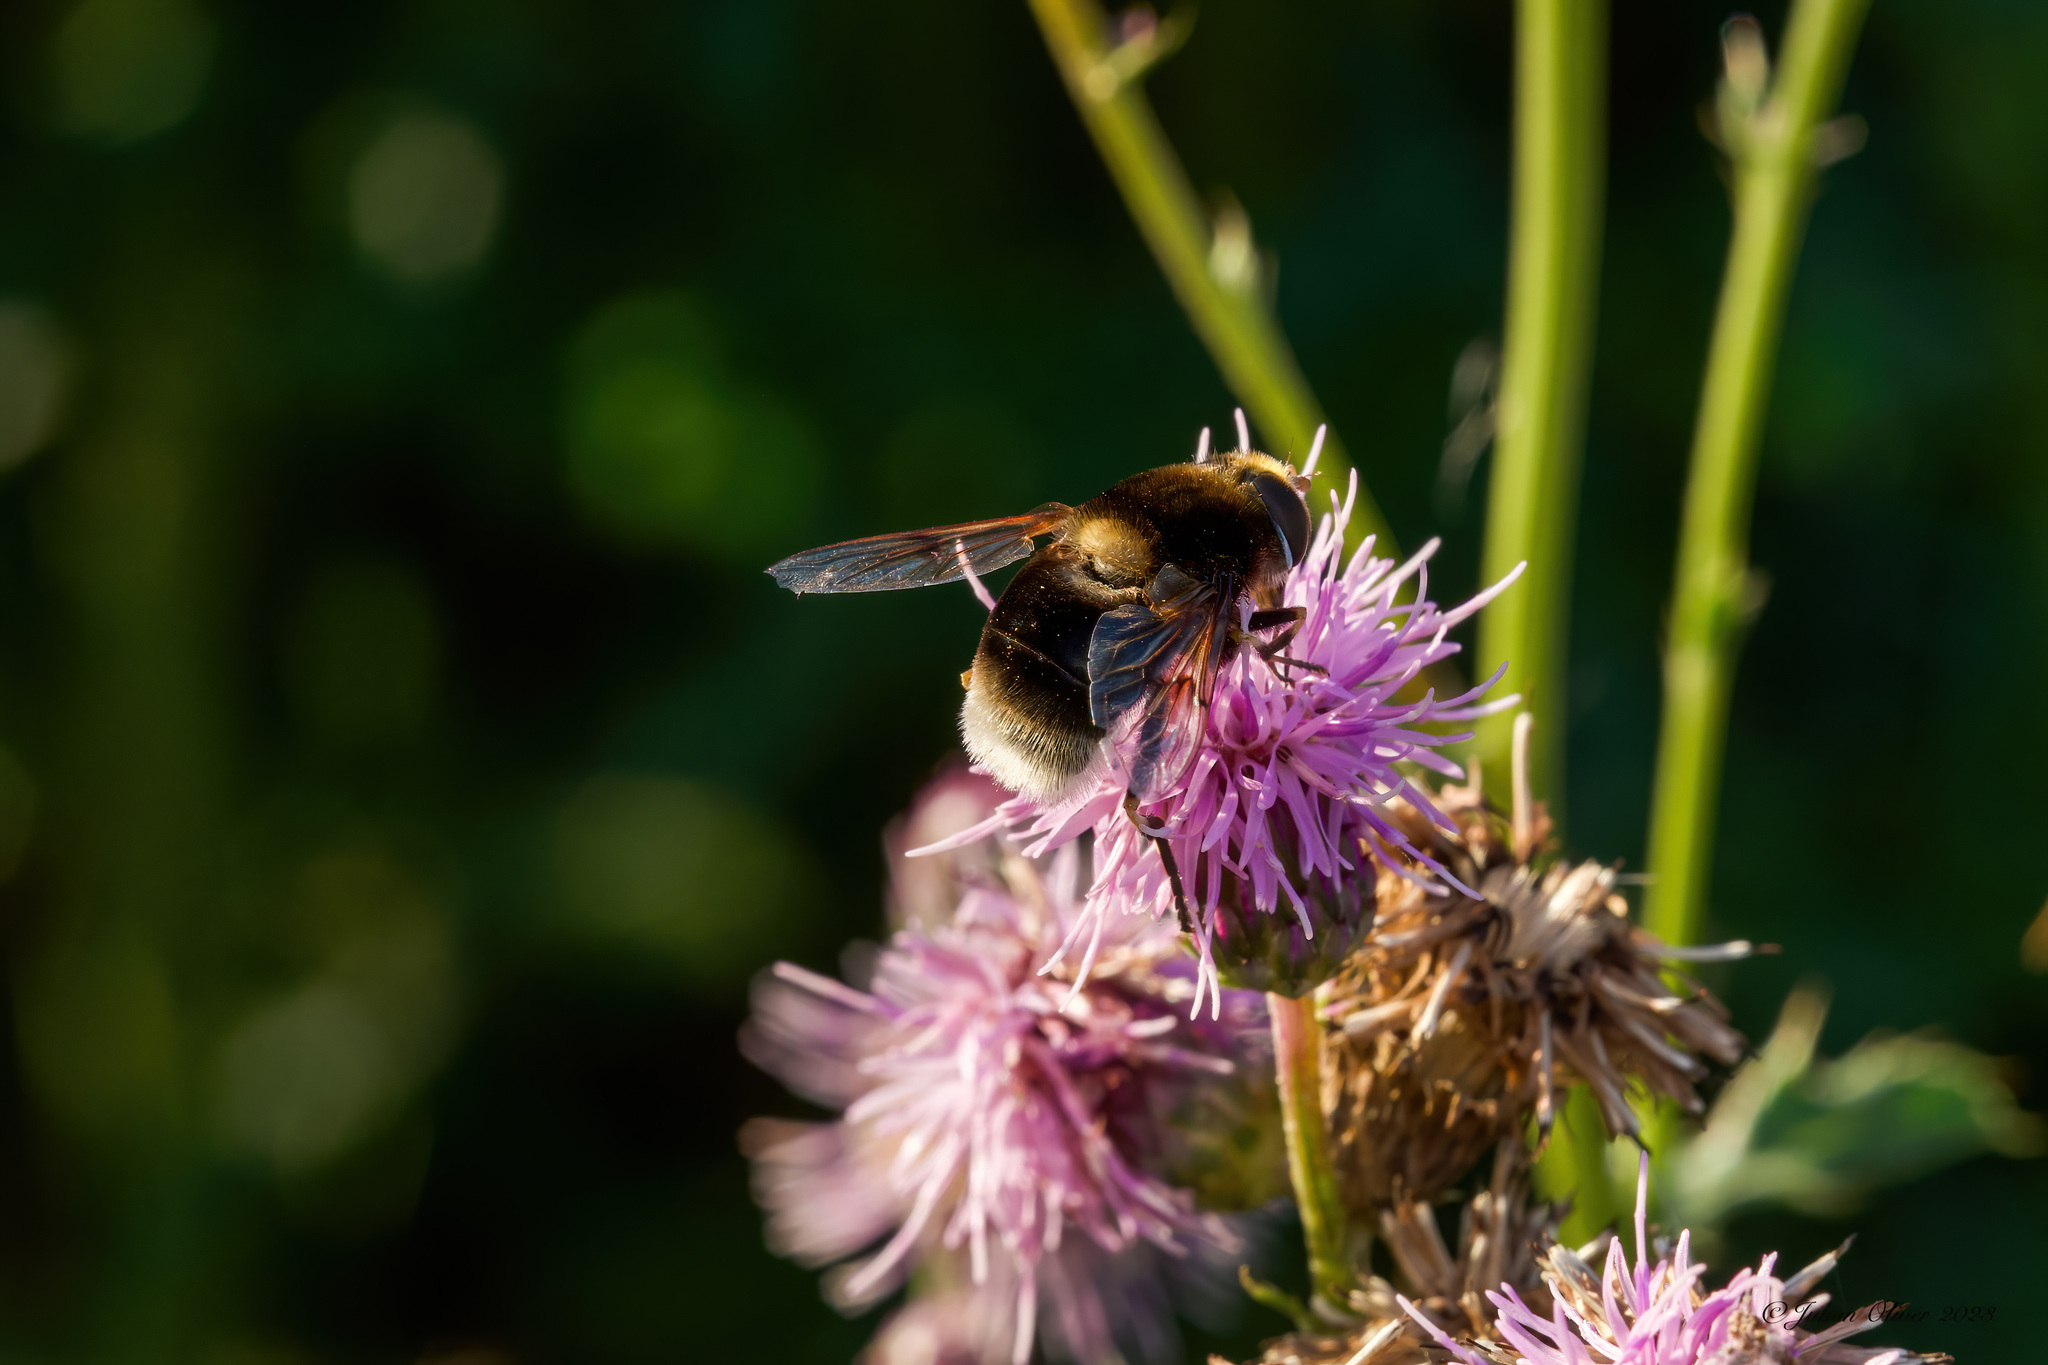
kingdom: Animalia
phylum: Arthropoda
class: Insecta
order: Diptera
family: Syrphidae
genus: Eristalis
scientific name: Eristalis intricaria
